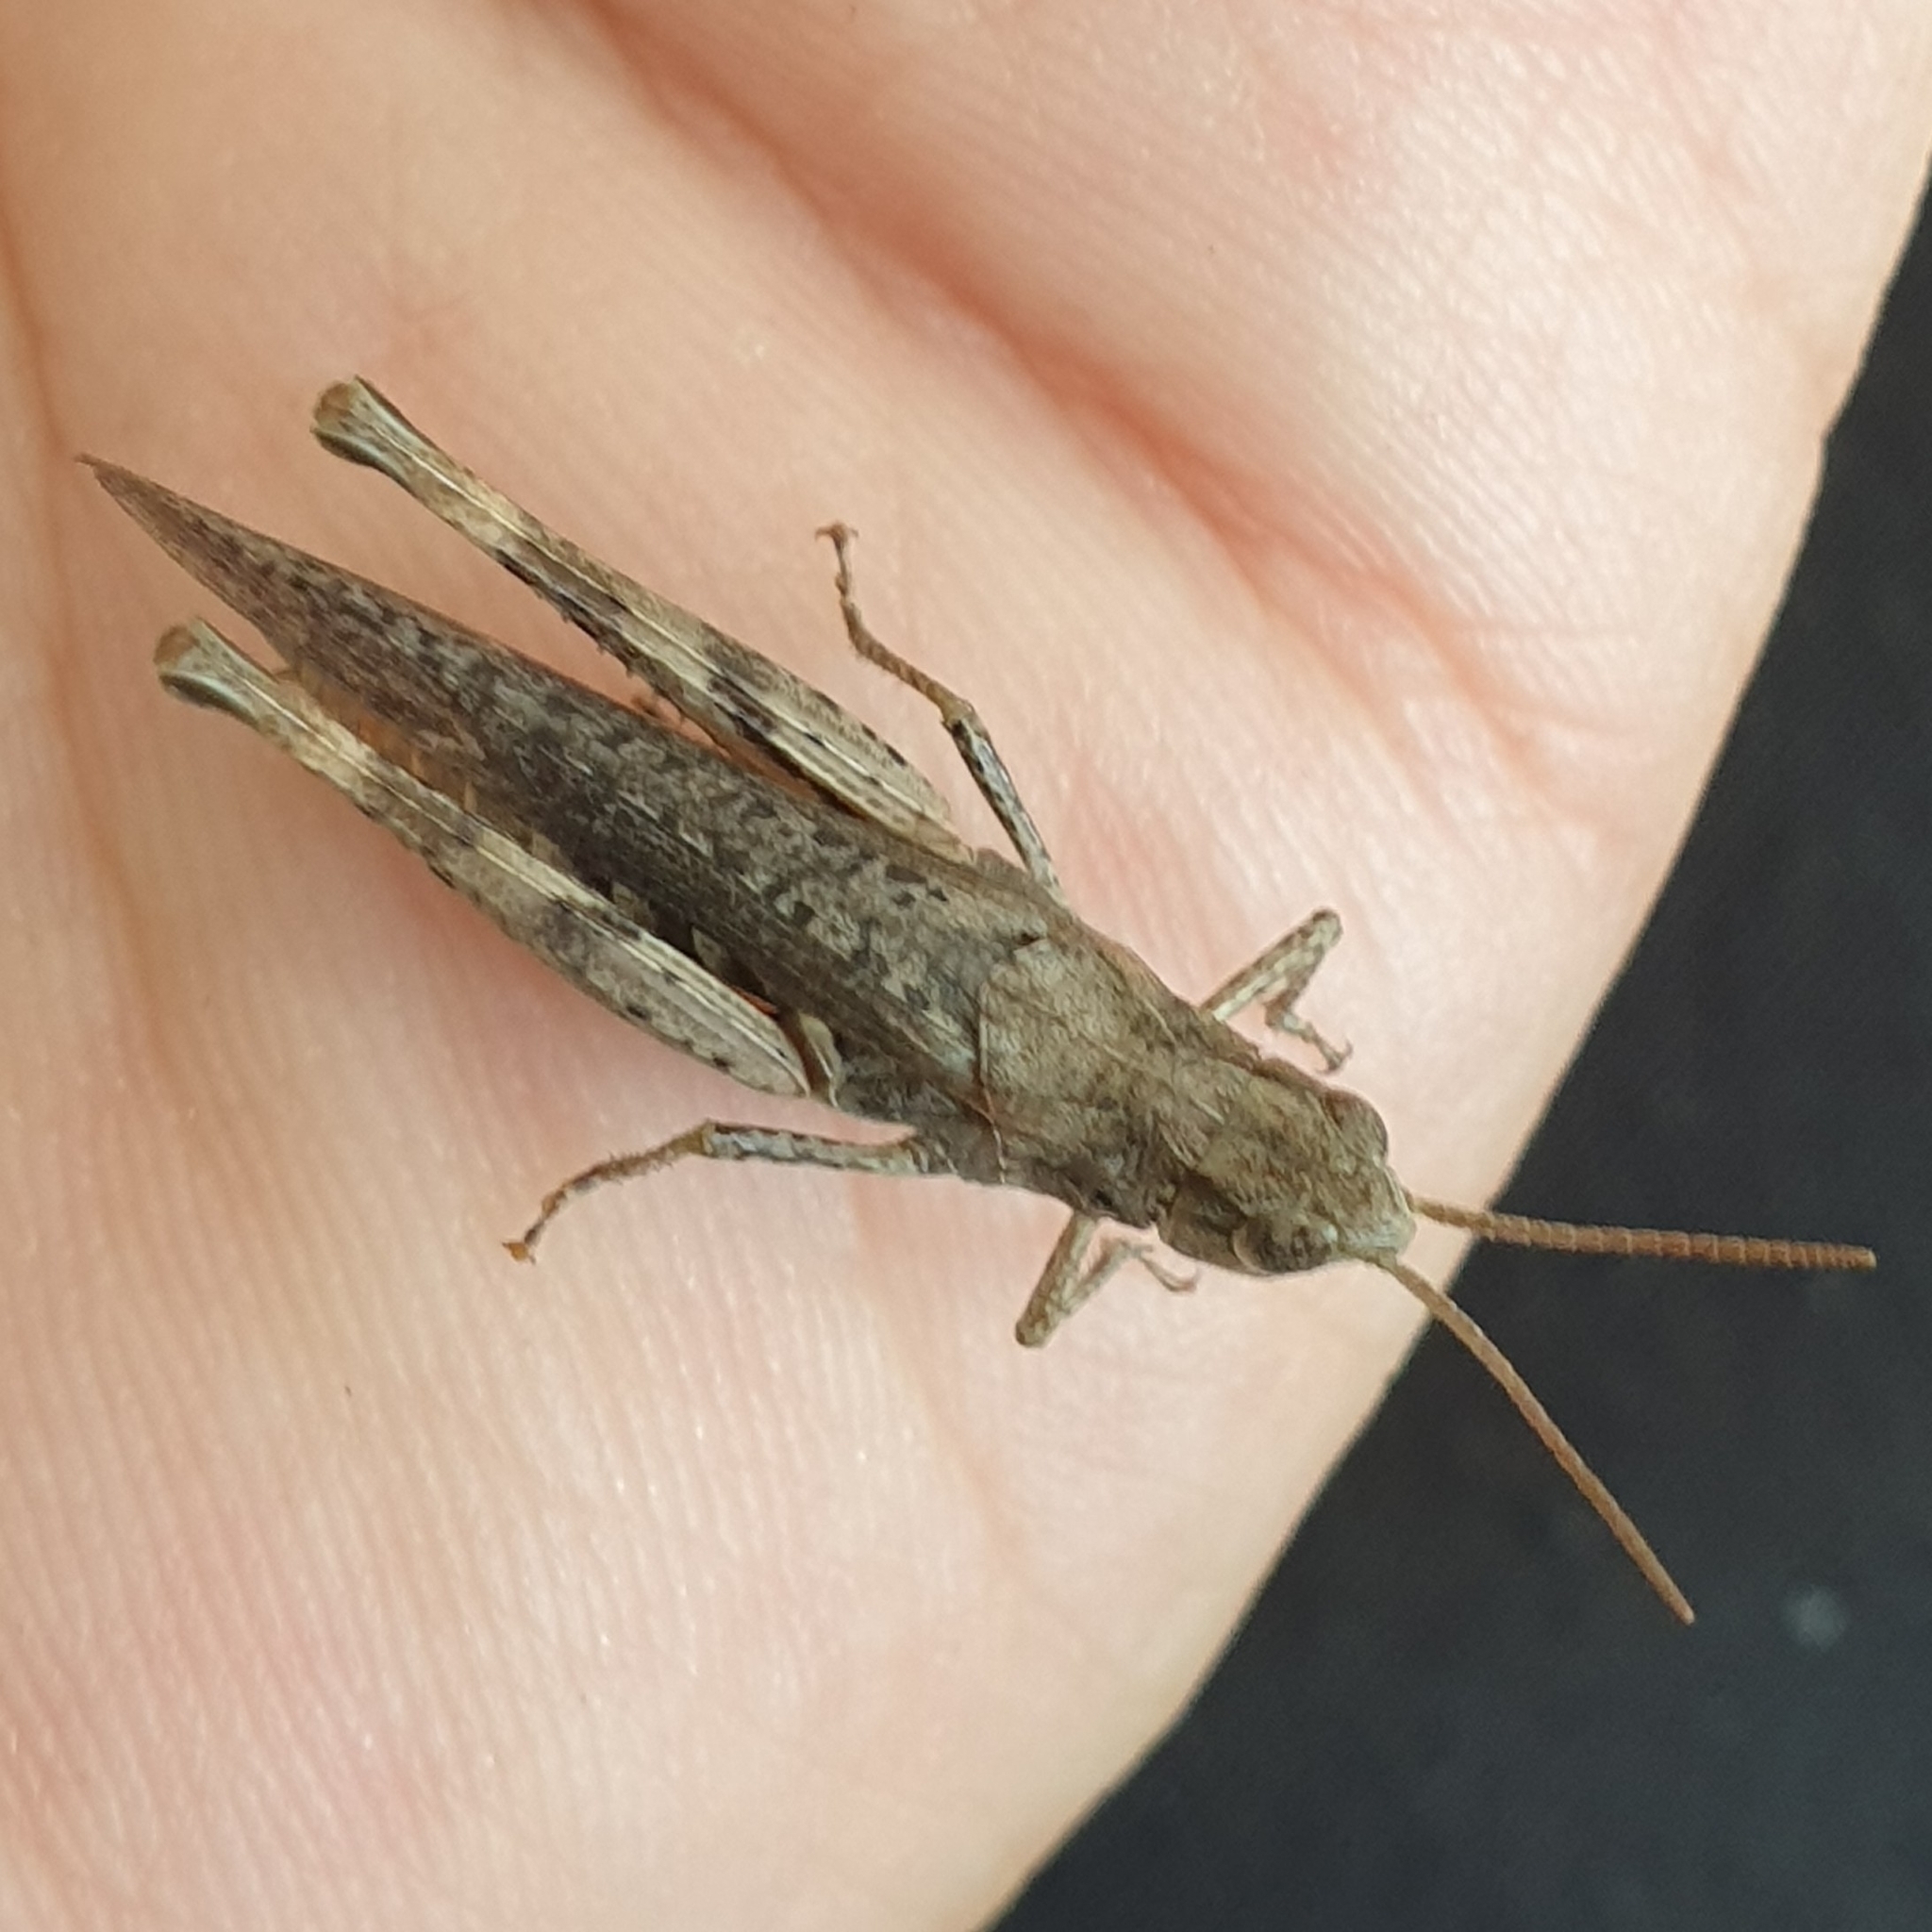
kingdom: Animalia
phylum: Arthropoda
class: Insecta
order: Orthoptera
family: Acrididae
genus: Chorthippus
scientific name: Chorthippus brunneus
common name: Field grasshopper
